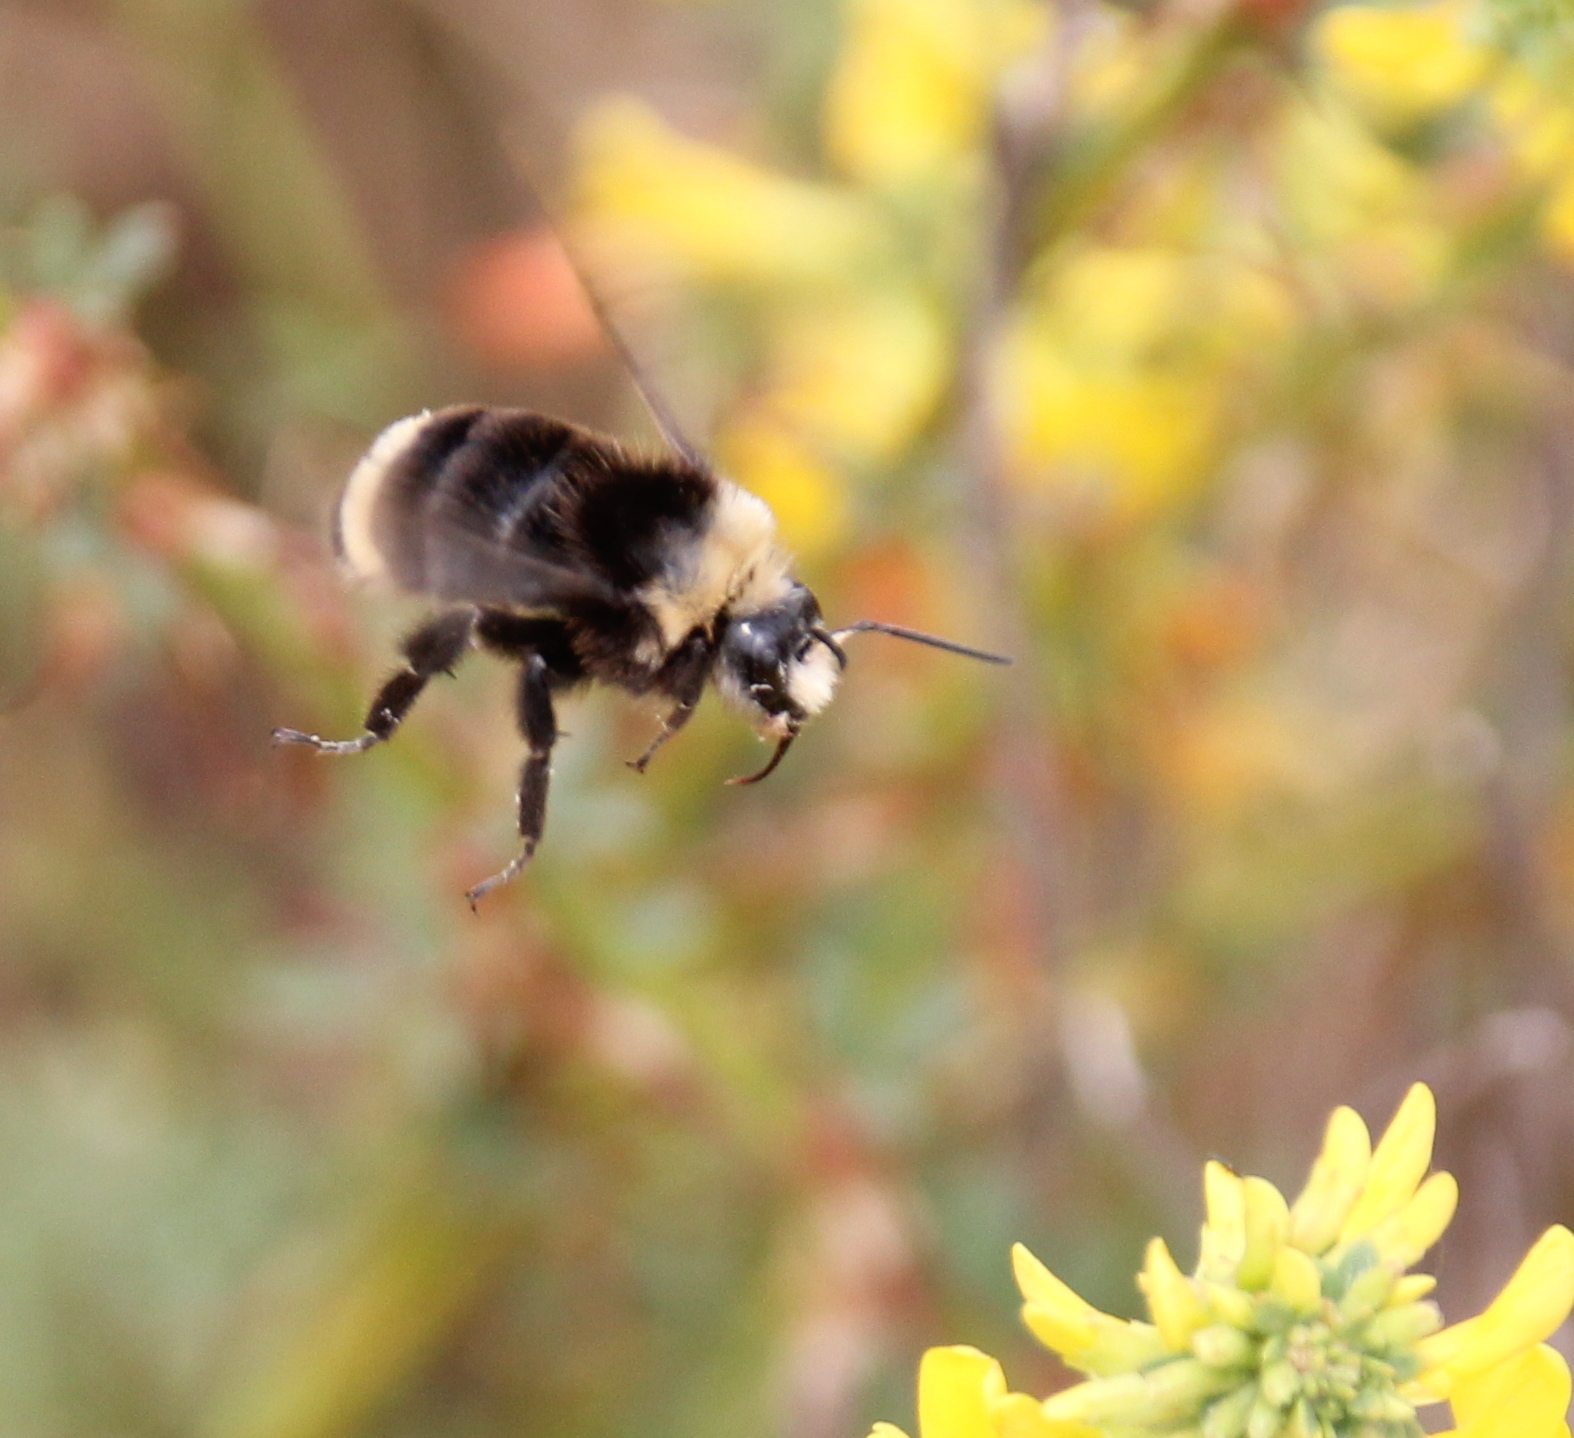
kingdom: Animalia
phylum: Arthropoda
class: Insecta
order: Hymenoptera
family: Apidae
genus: Bombus
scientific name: Bombus vosnesenskii
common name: Vosnesensky bumble bee
